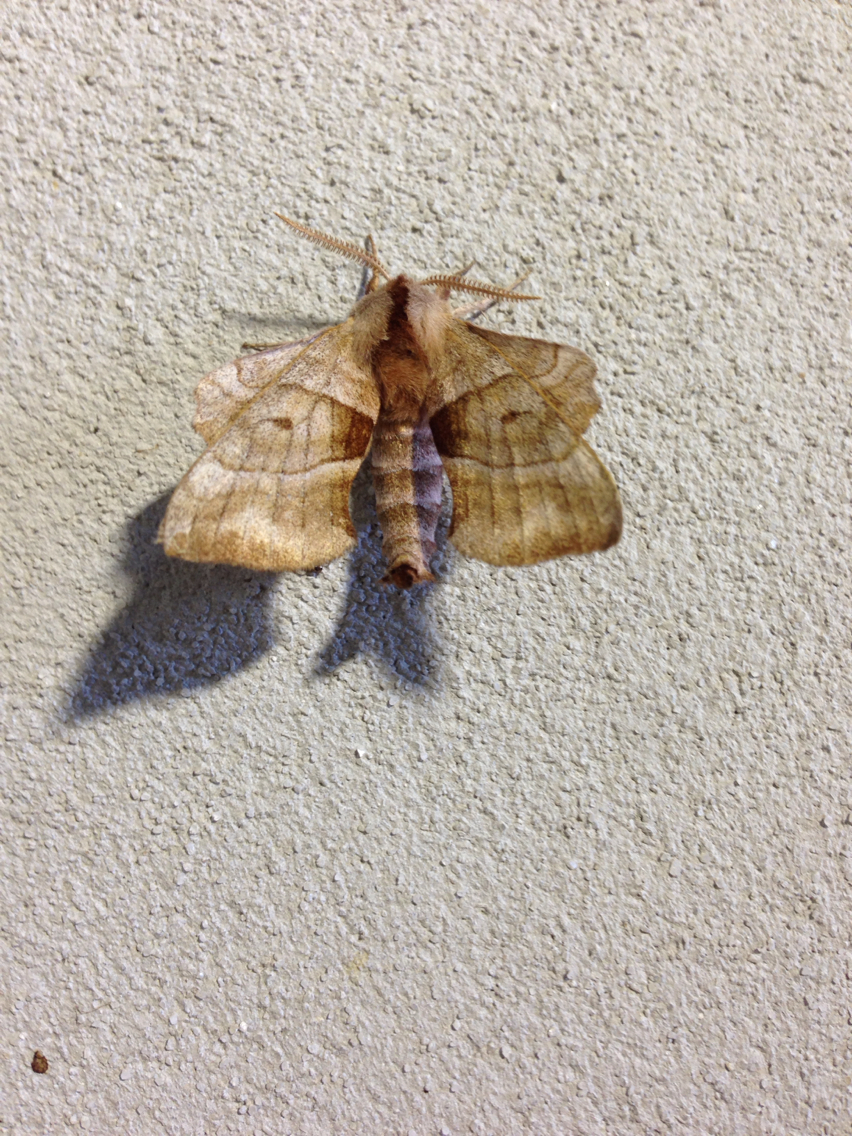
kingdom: Animalia
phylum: Arthropoda
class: Insecta
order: Lepidoptera
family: Sphingidae
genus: Amorpha
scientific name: Amorpha juglandis
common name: Walnut sphinx
